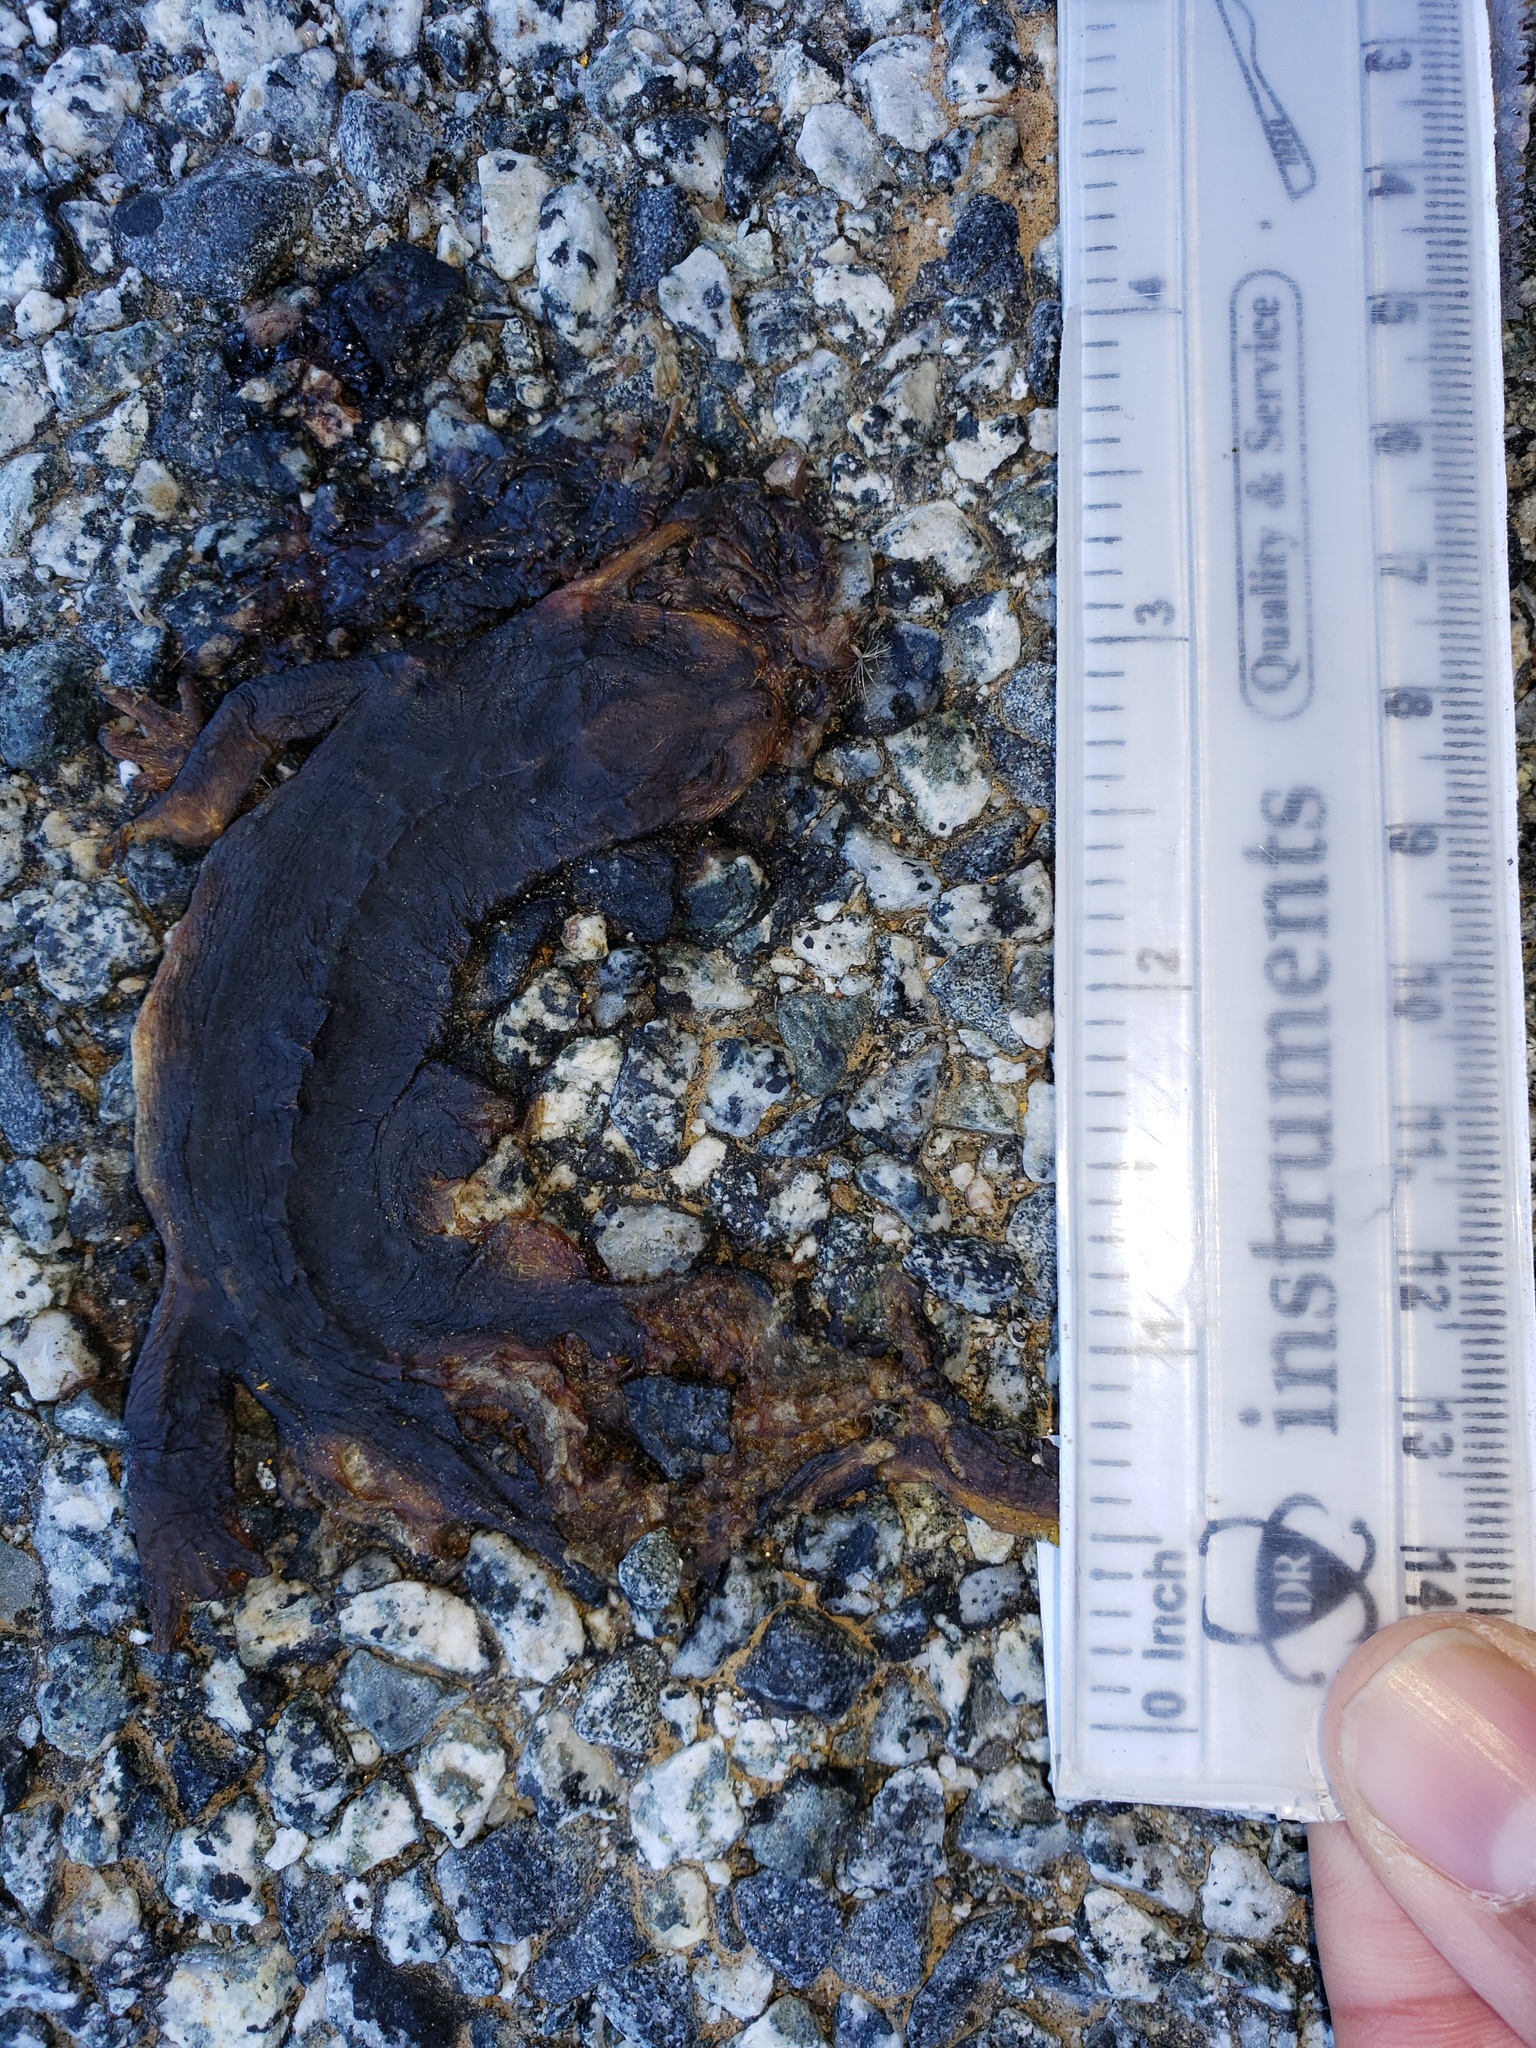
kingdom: Animalia
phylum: Chordata
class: Amphibia
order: Caudata
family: Salamandridae
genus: Taricha
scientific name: Taricha
